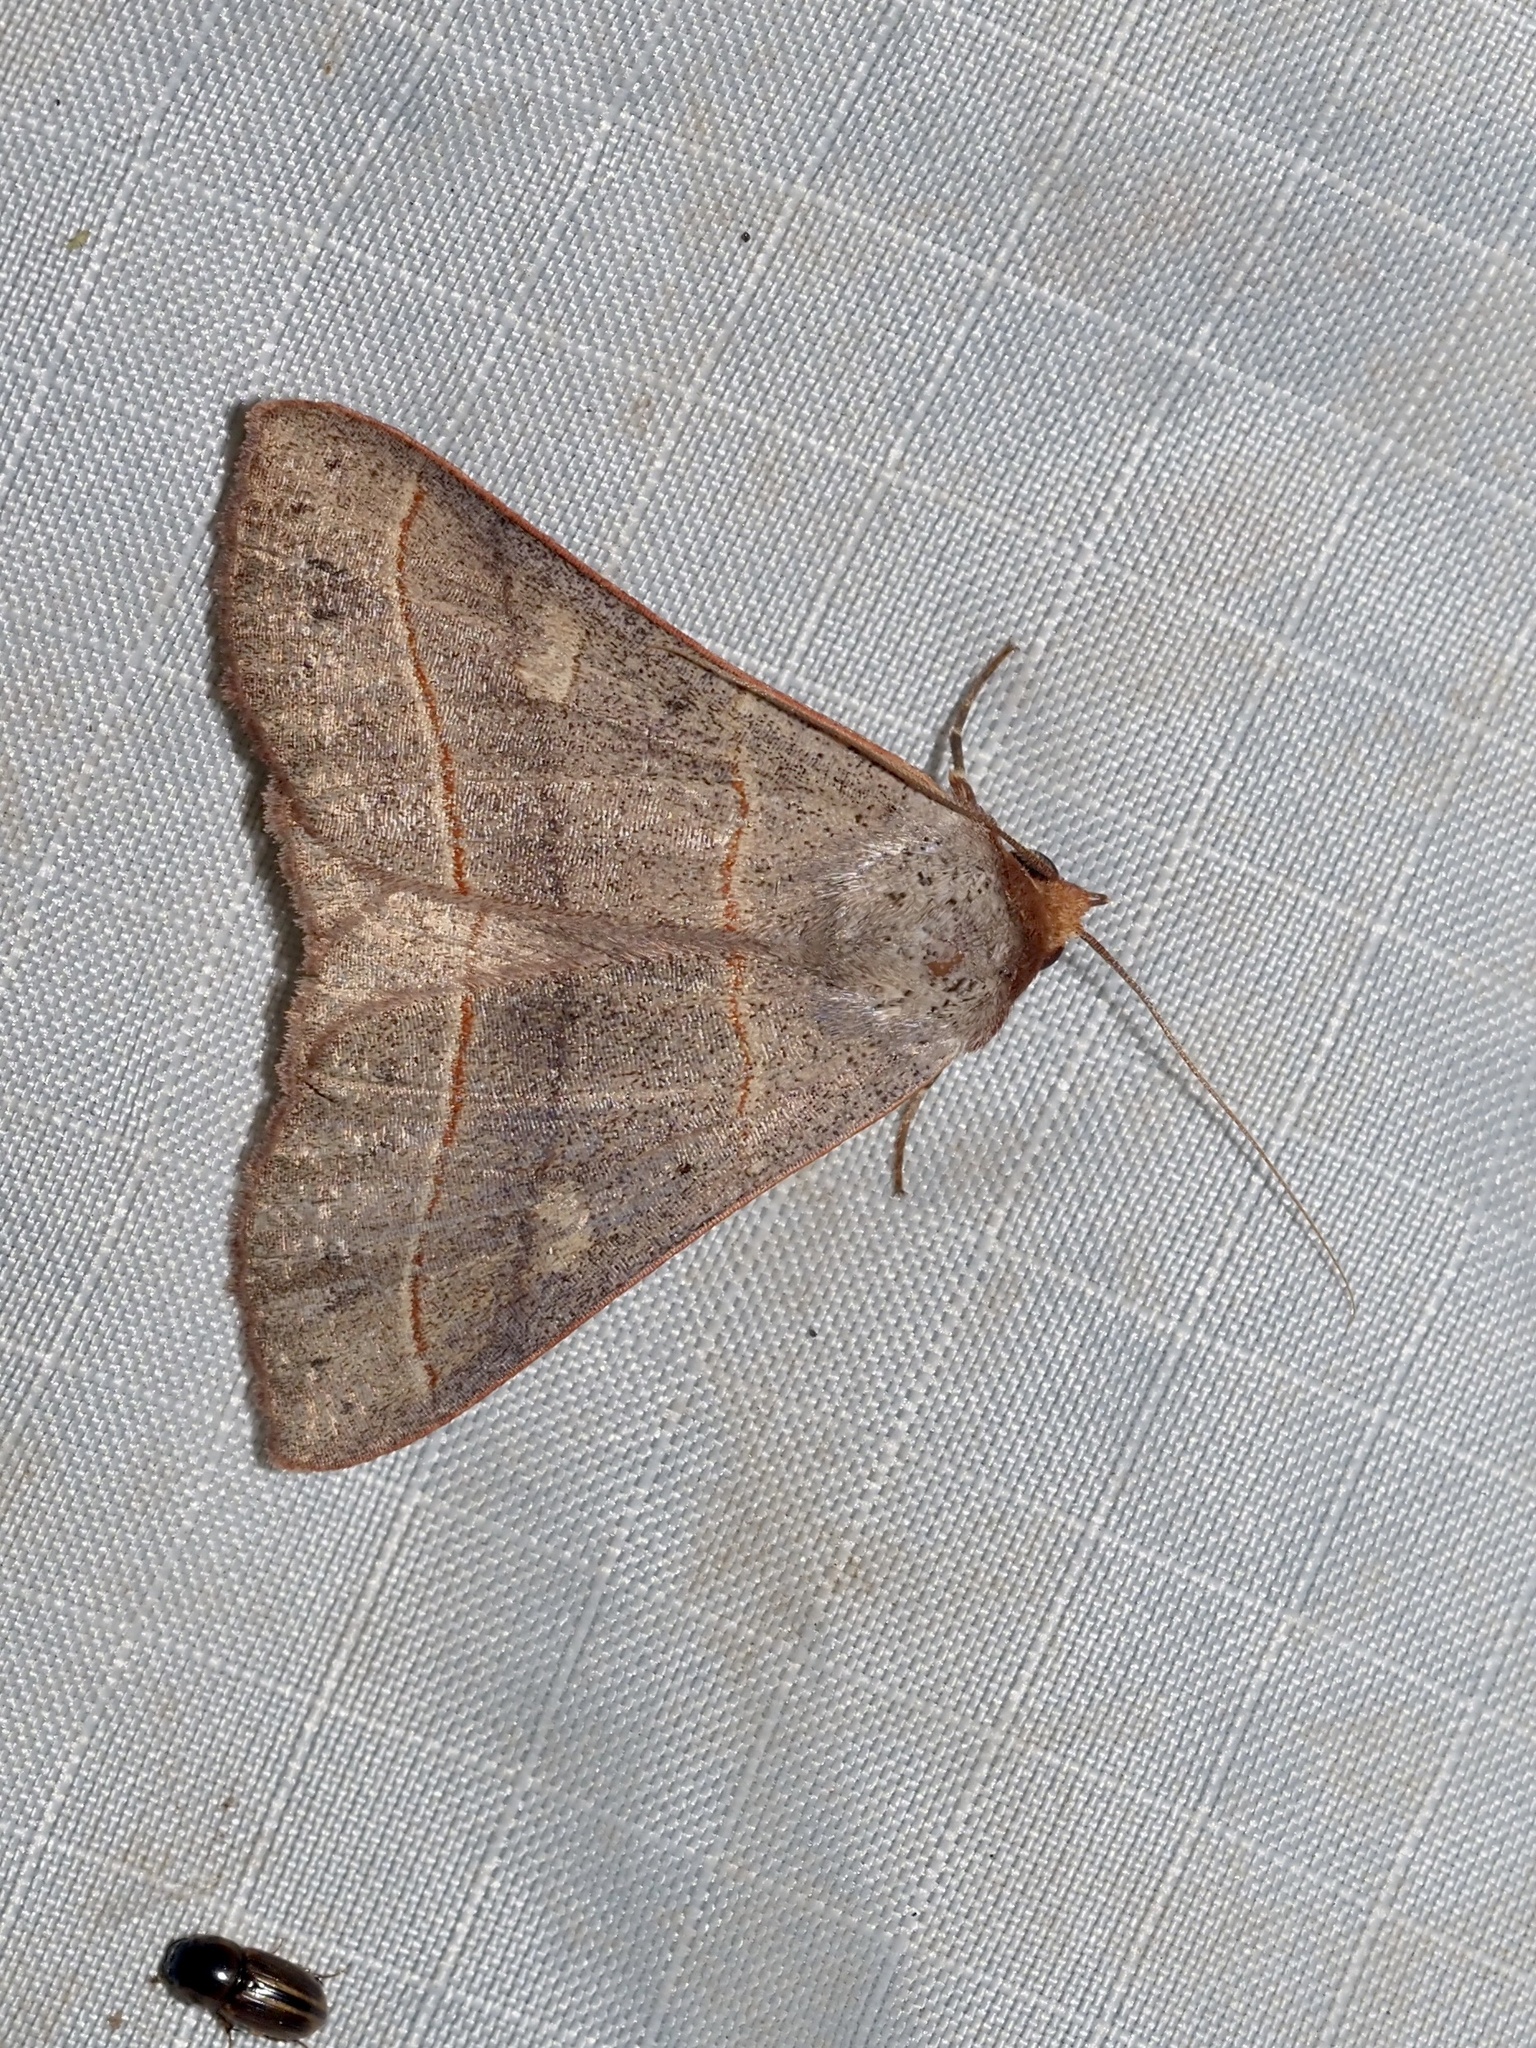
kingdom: Animalia
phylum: Arthropoda
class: Insecta
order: Lepidoptera
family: Erebidae
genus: Panopoda
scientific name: Panopoda rufimargo
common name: Red-lined panopoda moth
